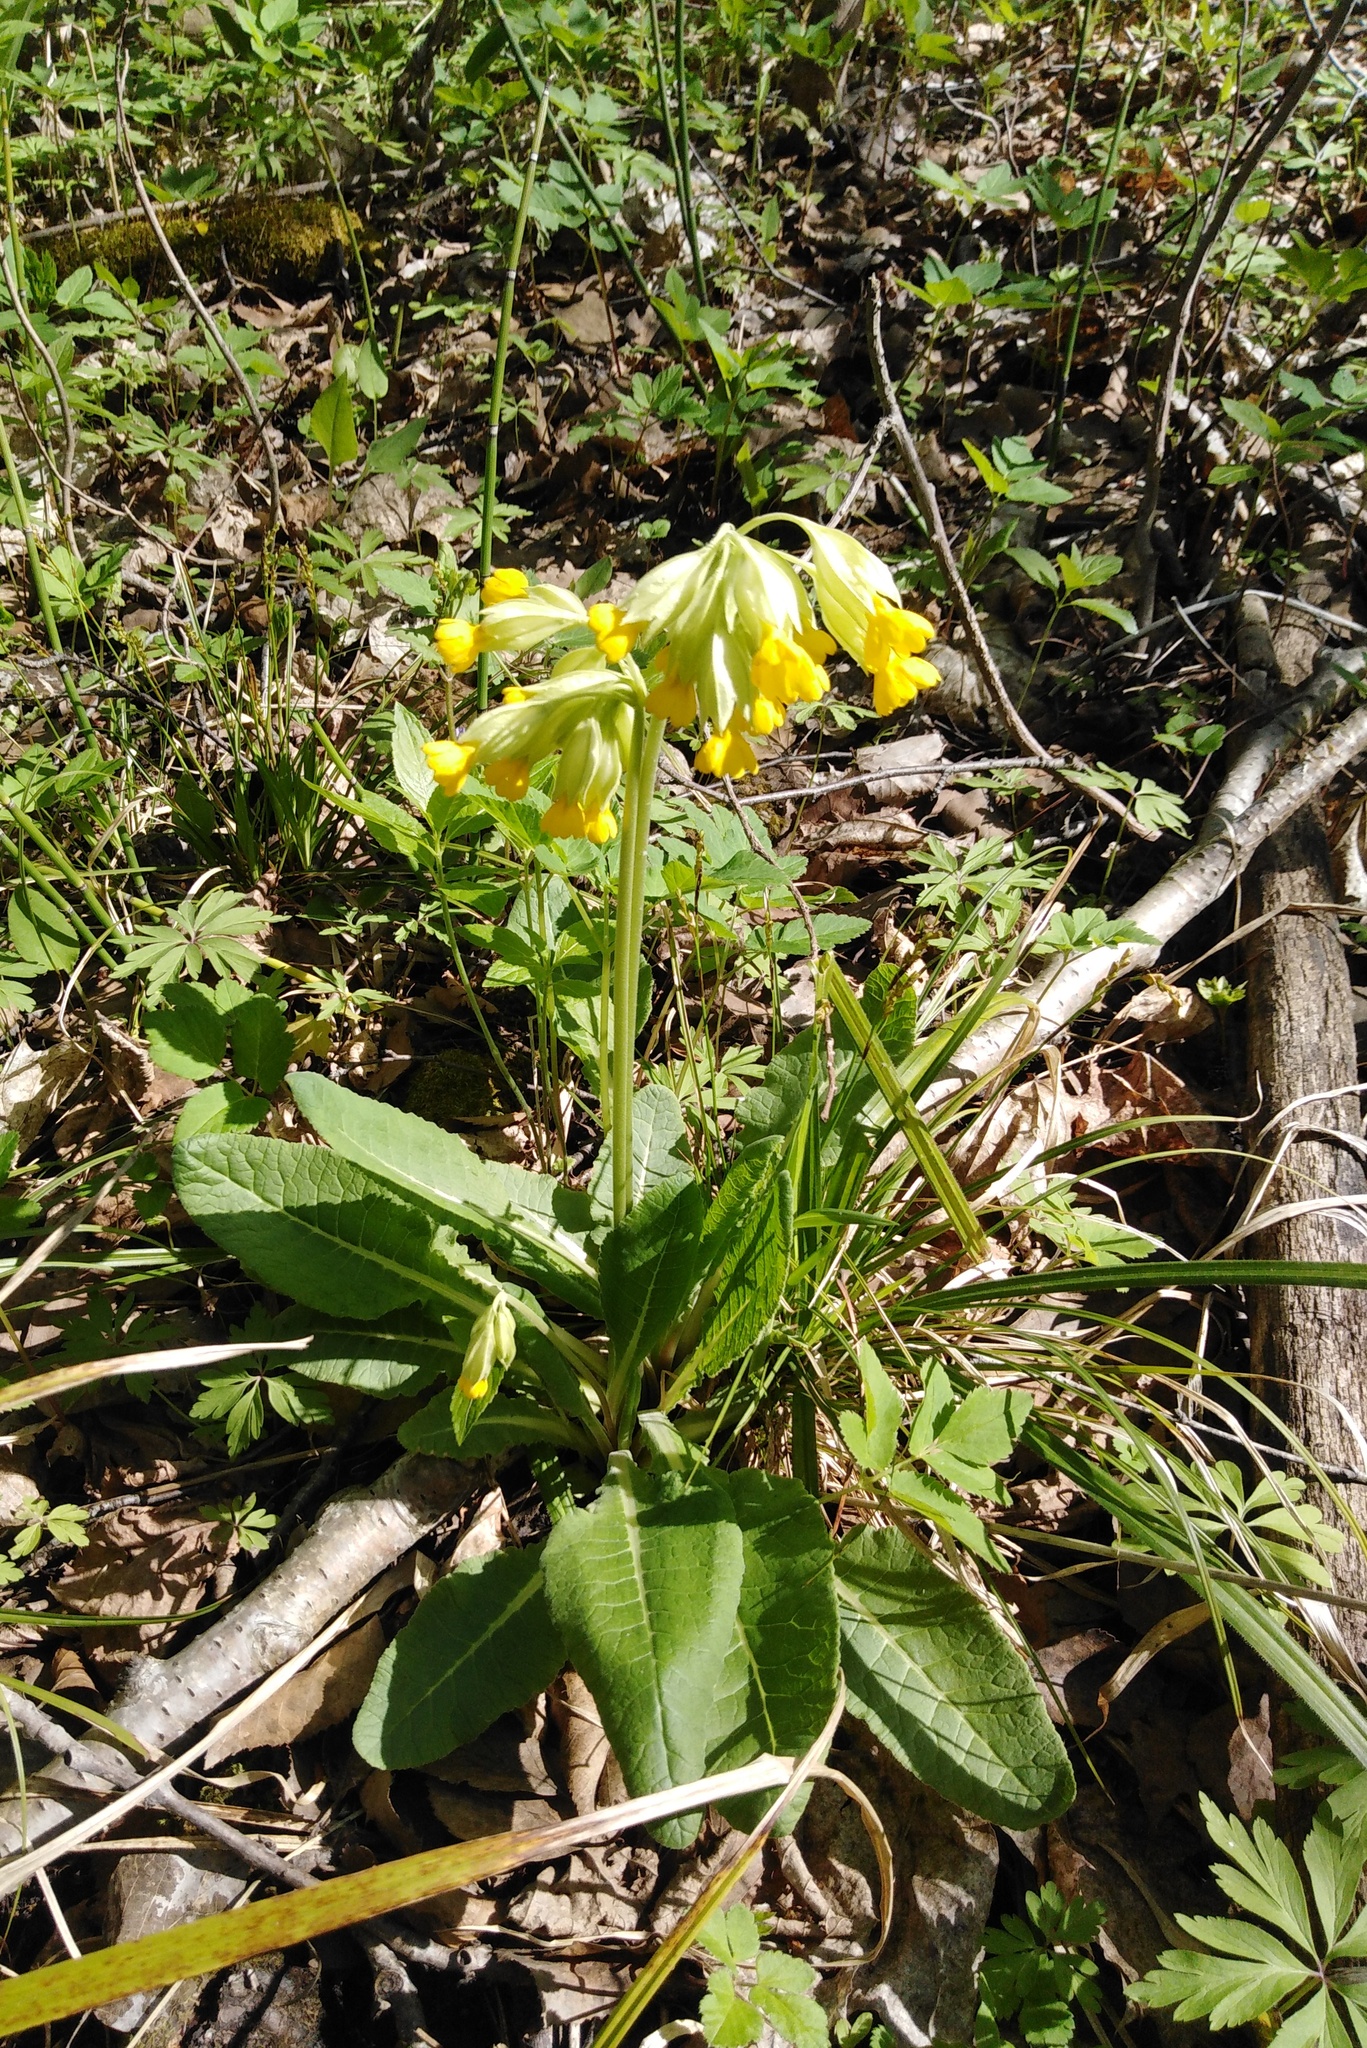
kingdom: Plantae
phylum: Tracheophyta
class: Magnoliopsida
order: Ericales
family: Primulaceae
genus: Primula
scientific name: Primula veris
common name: Cowslip
